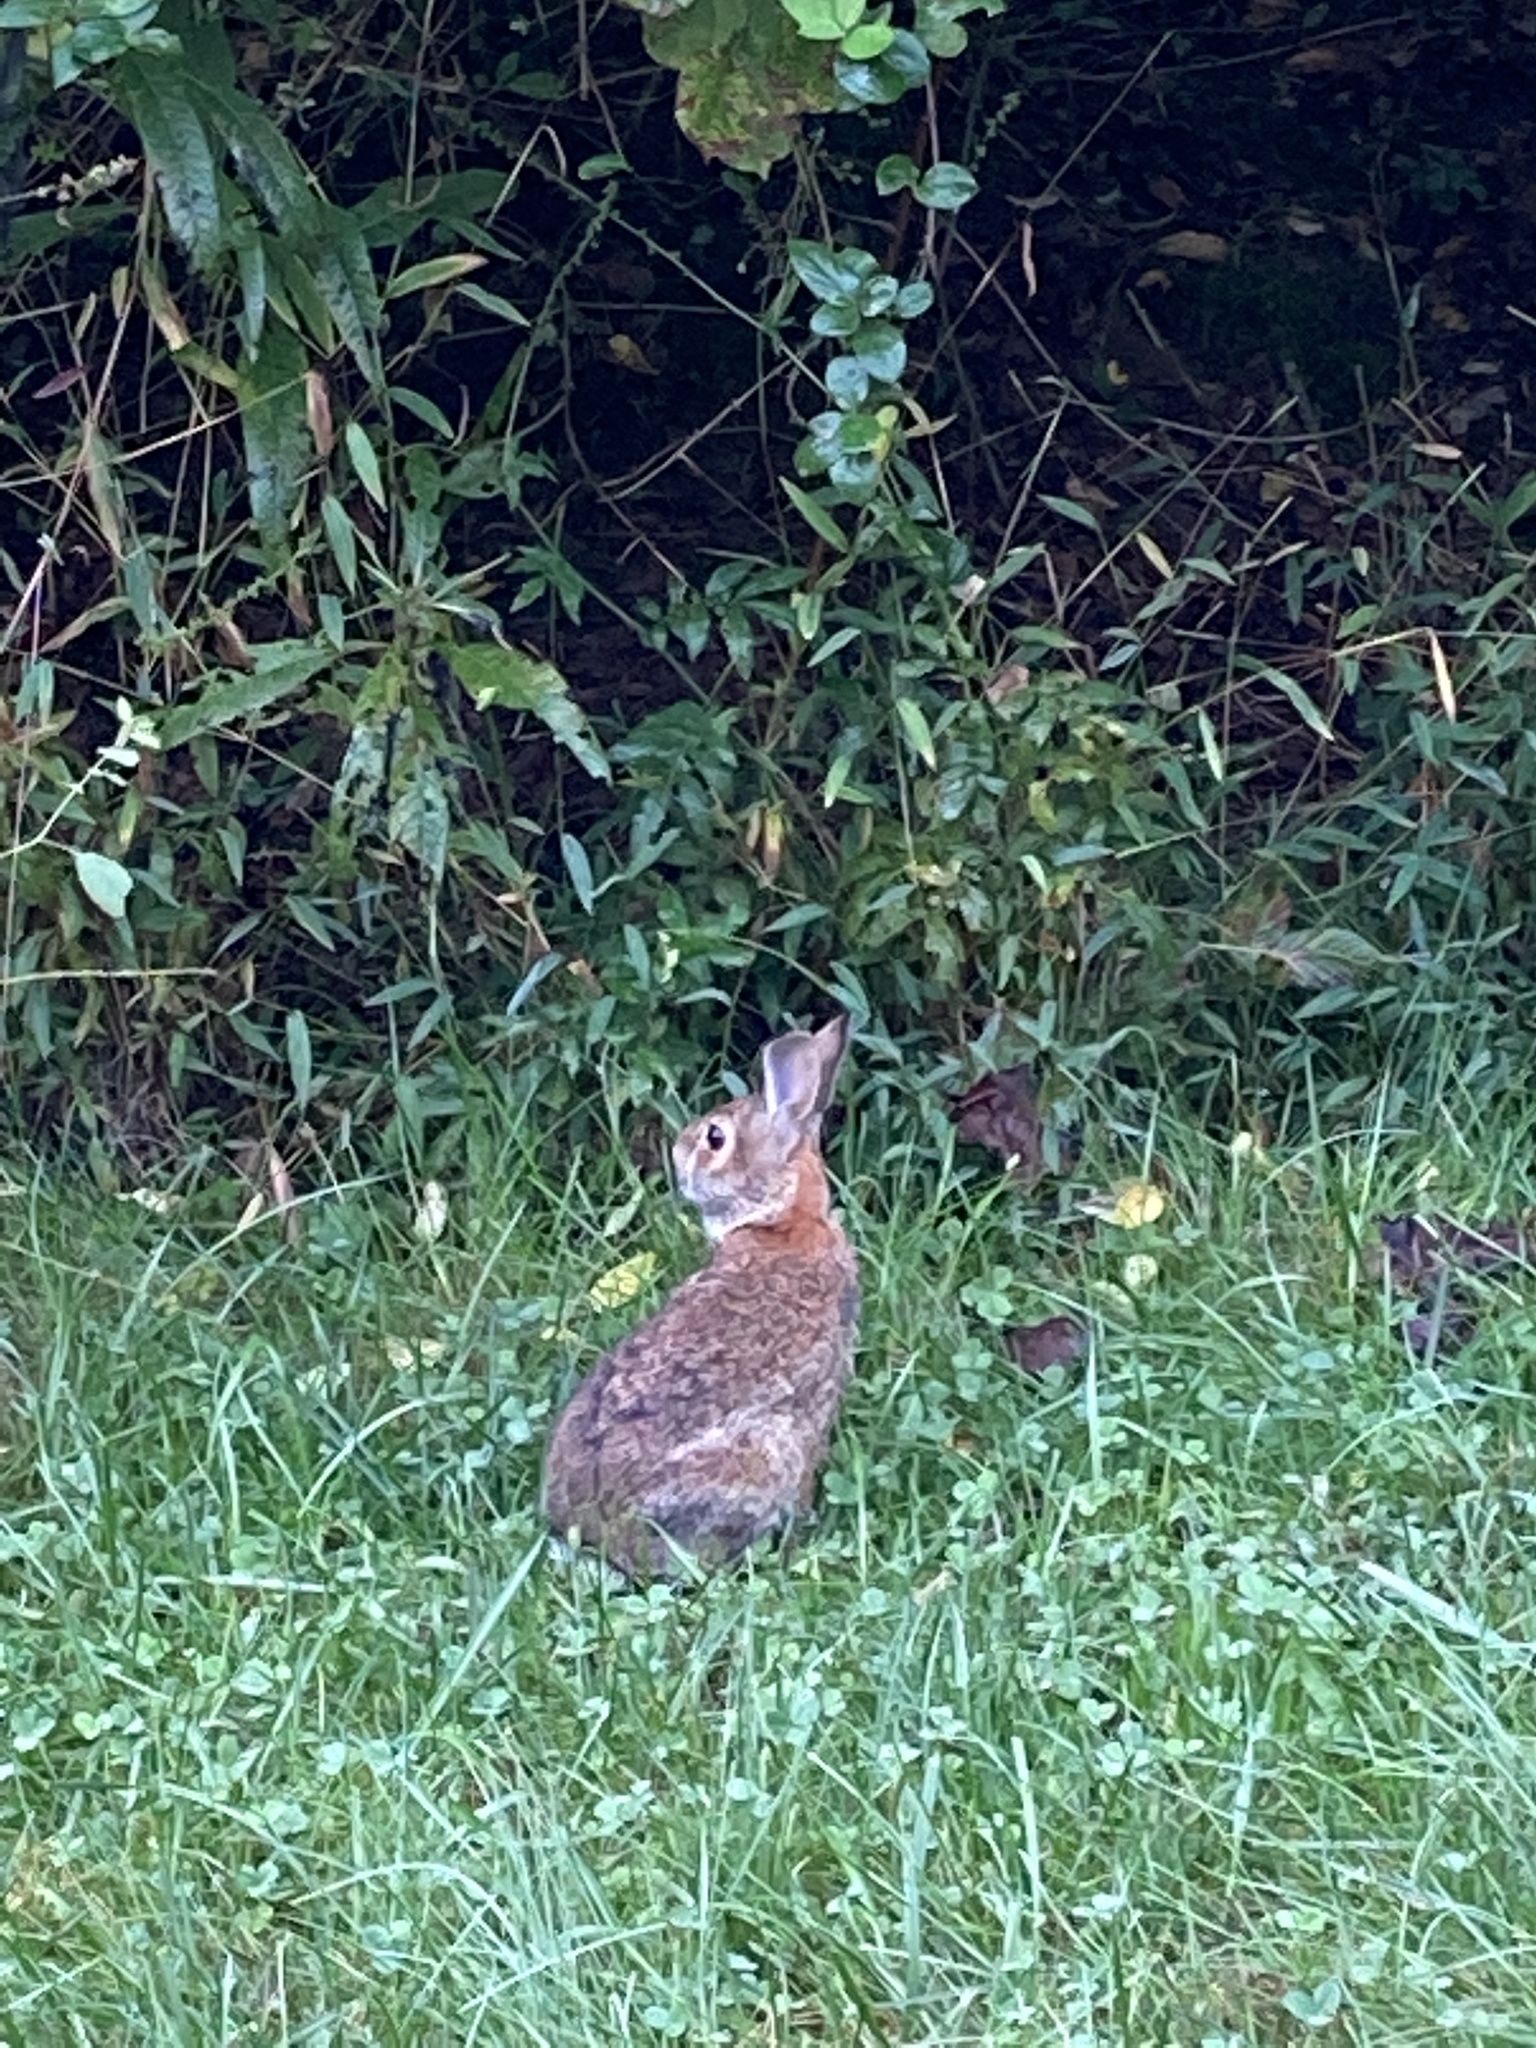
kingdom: Animalia
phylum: Chordata
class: Mammalia
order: Lagomorpha
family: Leporidae
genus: Sylvilagus
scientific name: Sylvilagus floridanus
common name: Eastern cottontail
